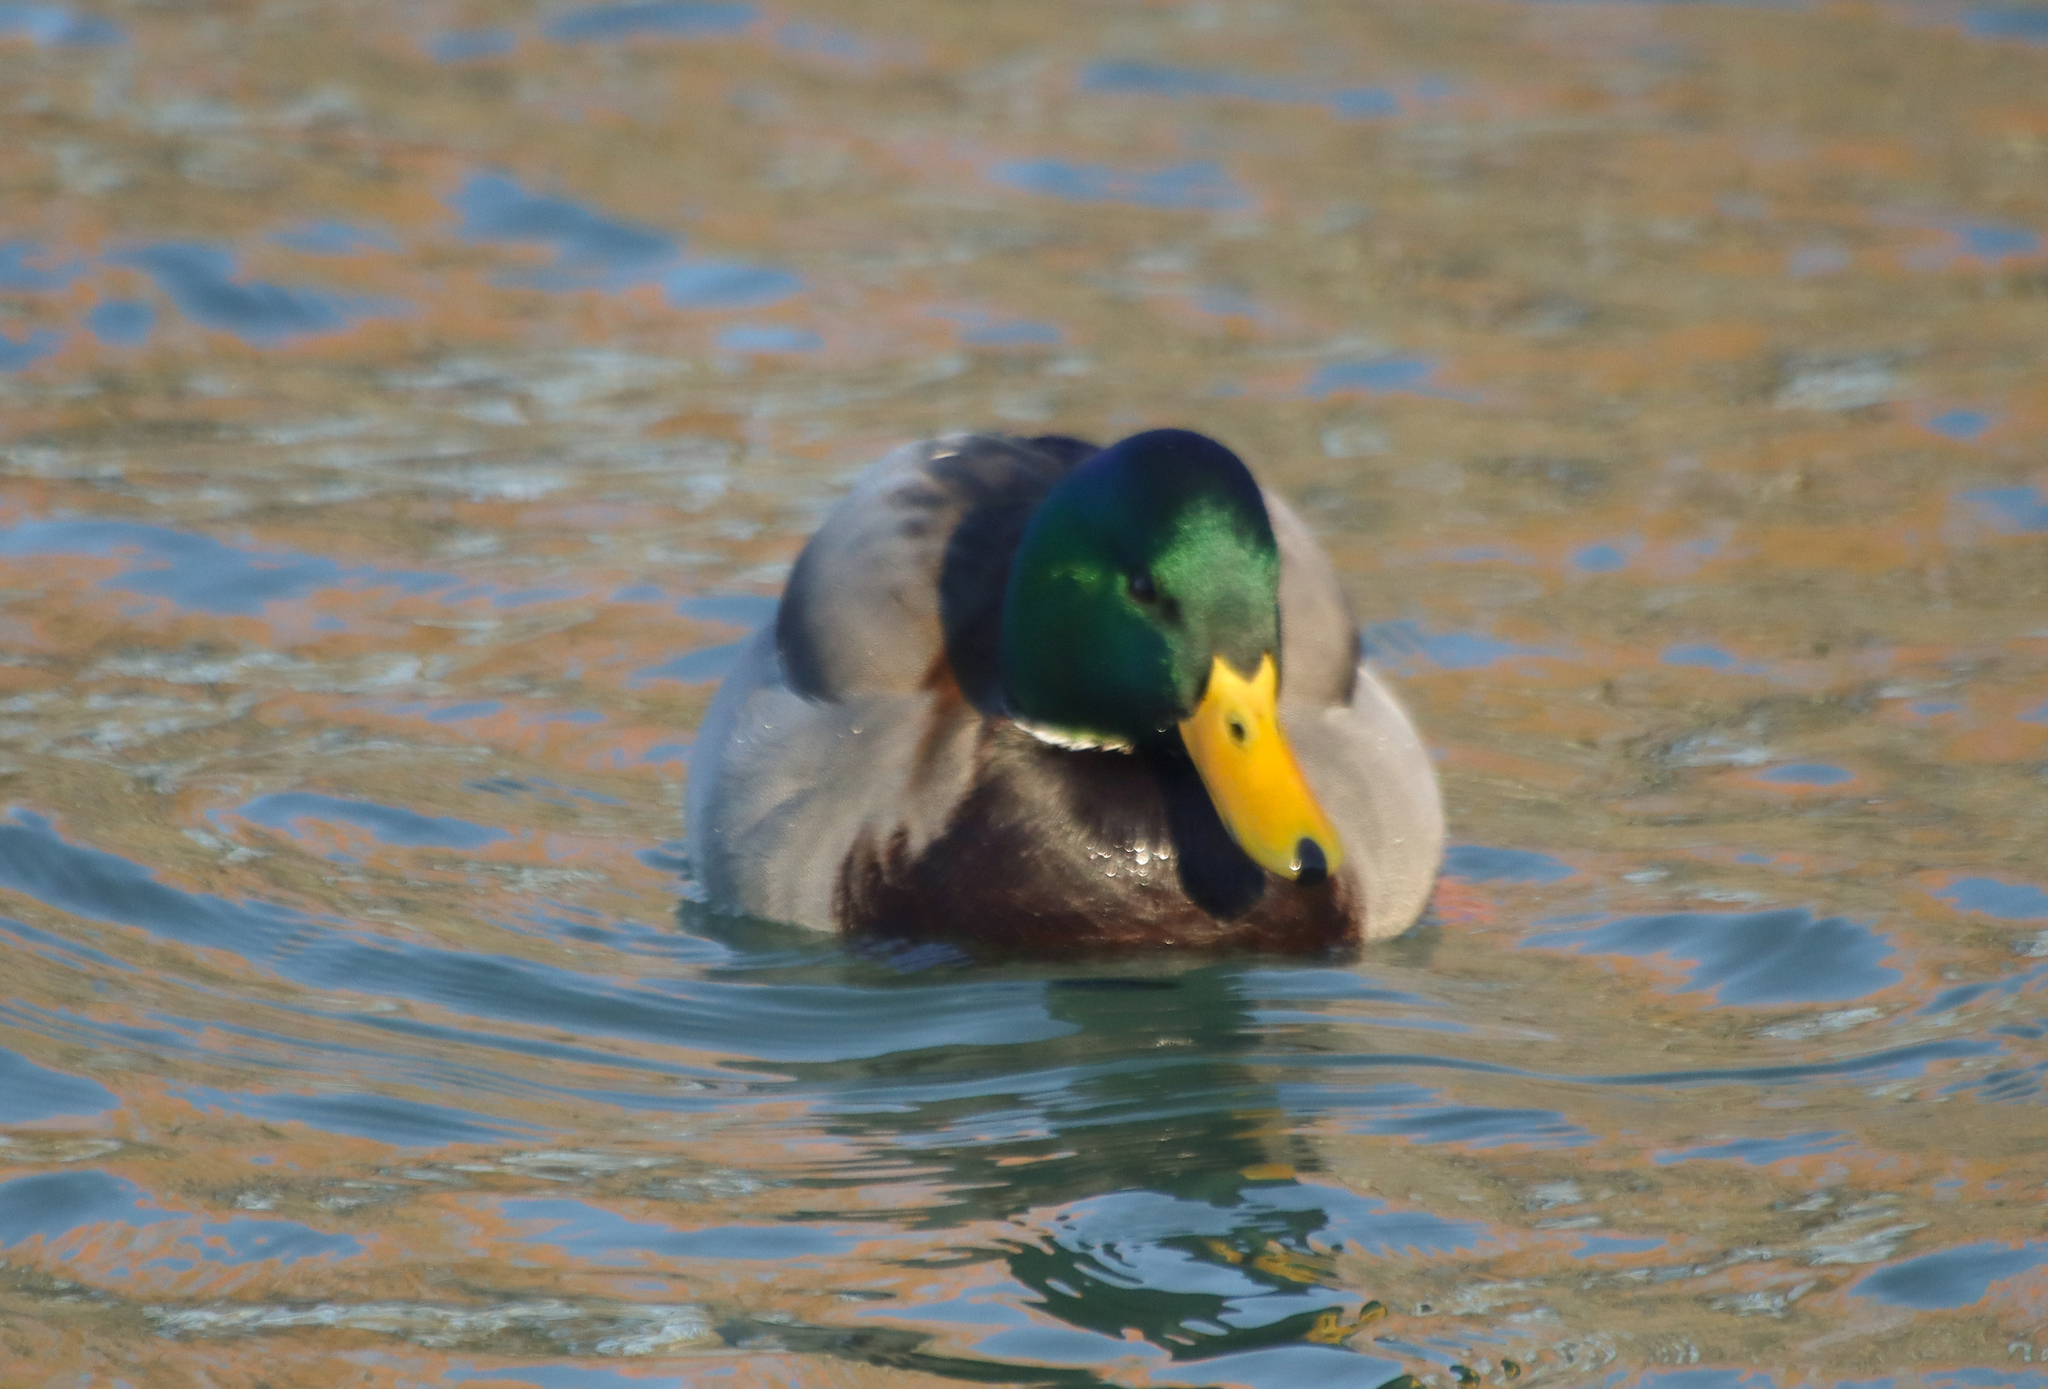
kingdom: Animalia
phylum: Chordata
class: Aves
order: Anseriformes
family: Anatidae
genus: Anas
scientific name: Anas platyrhynchos
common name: Mallard
